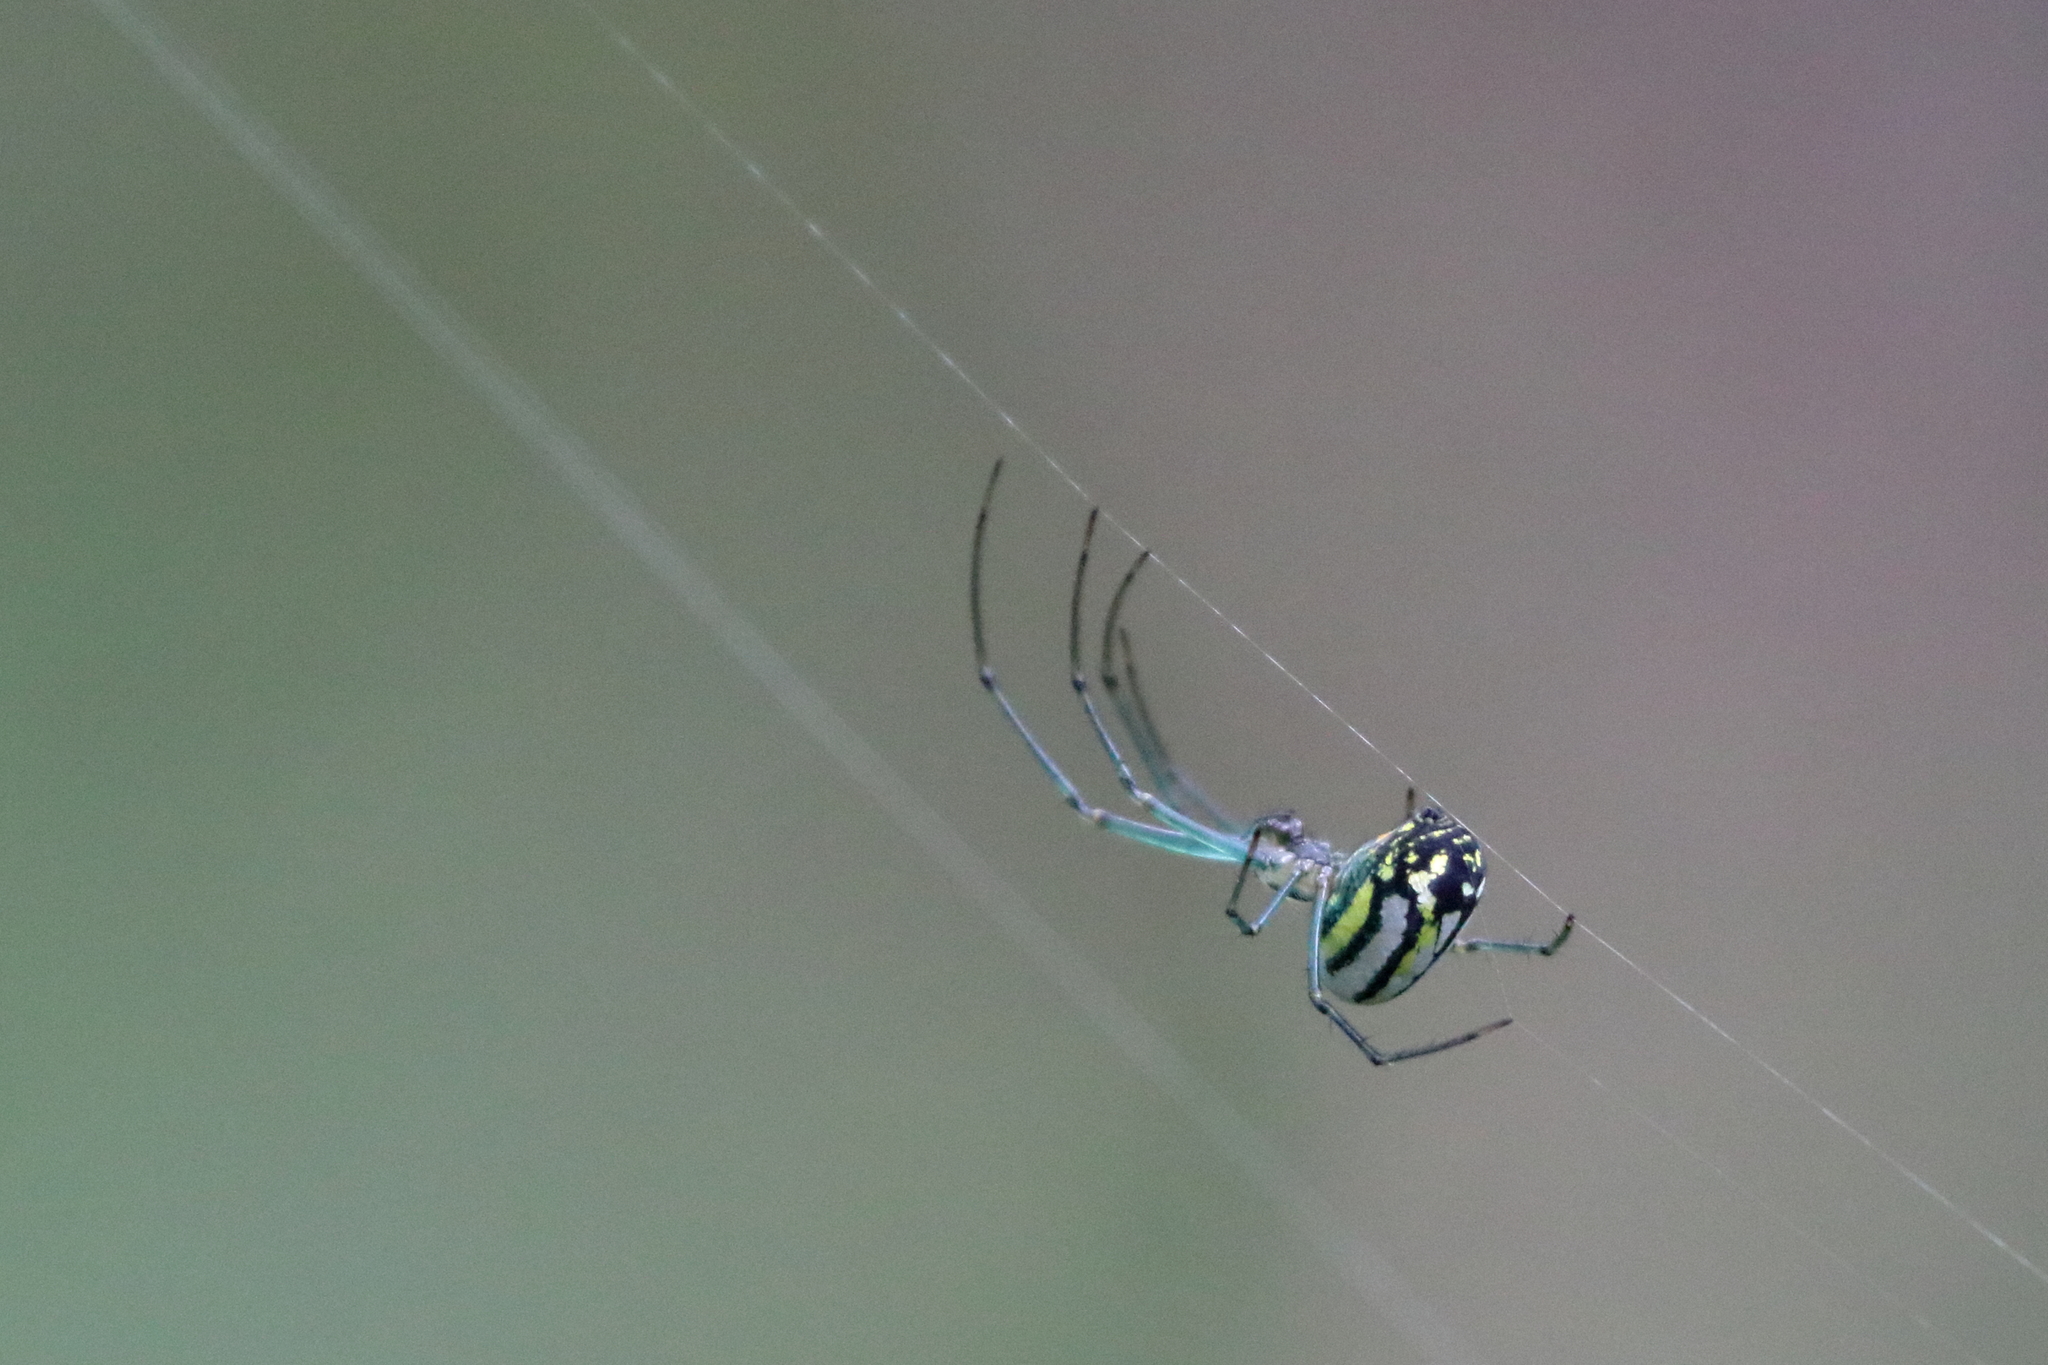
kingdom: Animalia
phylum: Arthropoda
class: Arachnida
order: Araneae
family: Tetragnathidae
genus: Leucauge
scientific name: Leucauge venusta
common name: Longjawed orb weavers
